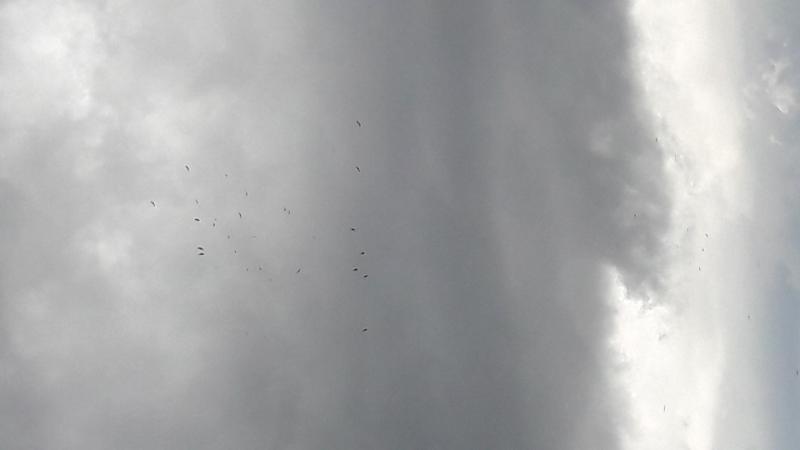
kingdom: Animalia
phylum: Chordata
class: Aves
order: Accipitriformes
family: Accipitridae
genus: Gyps
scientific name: Gyps fulvus
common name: Griffon vulture
